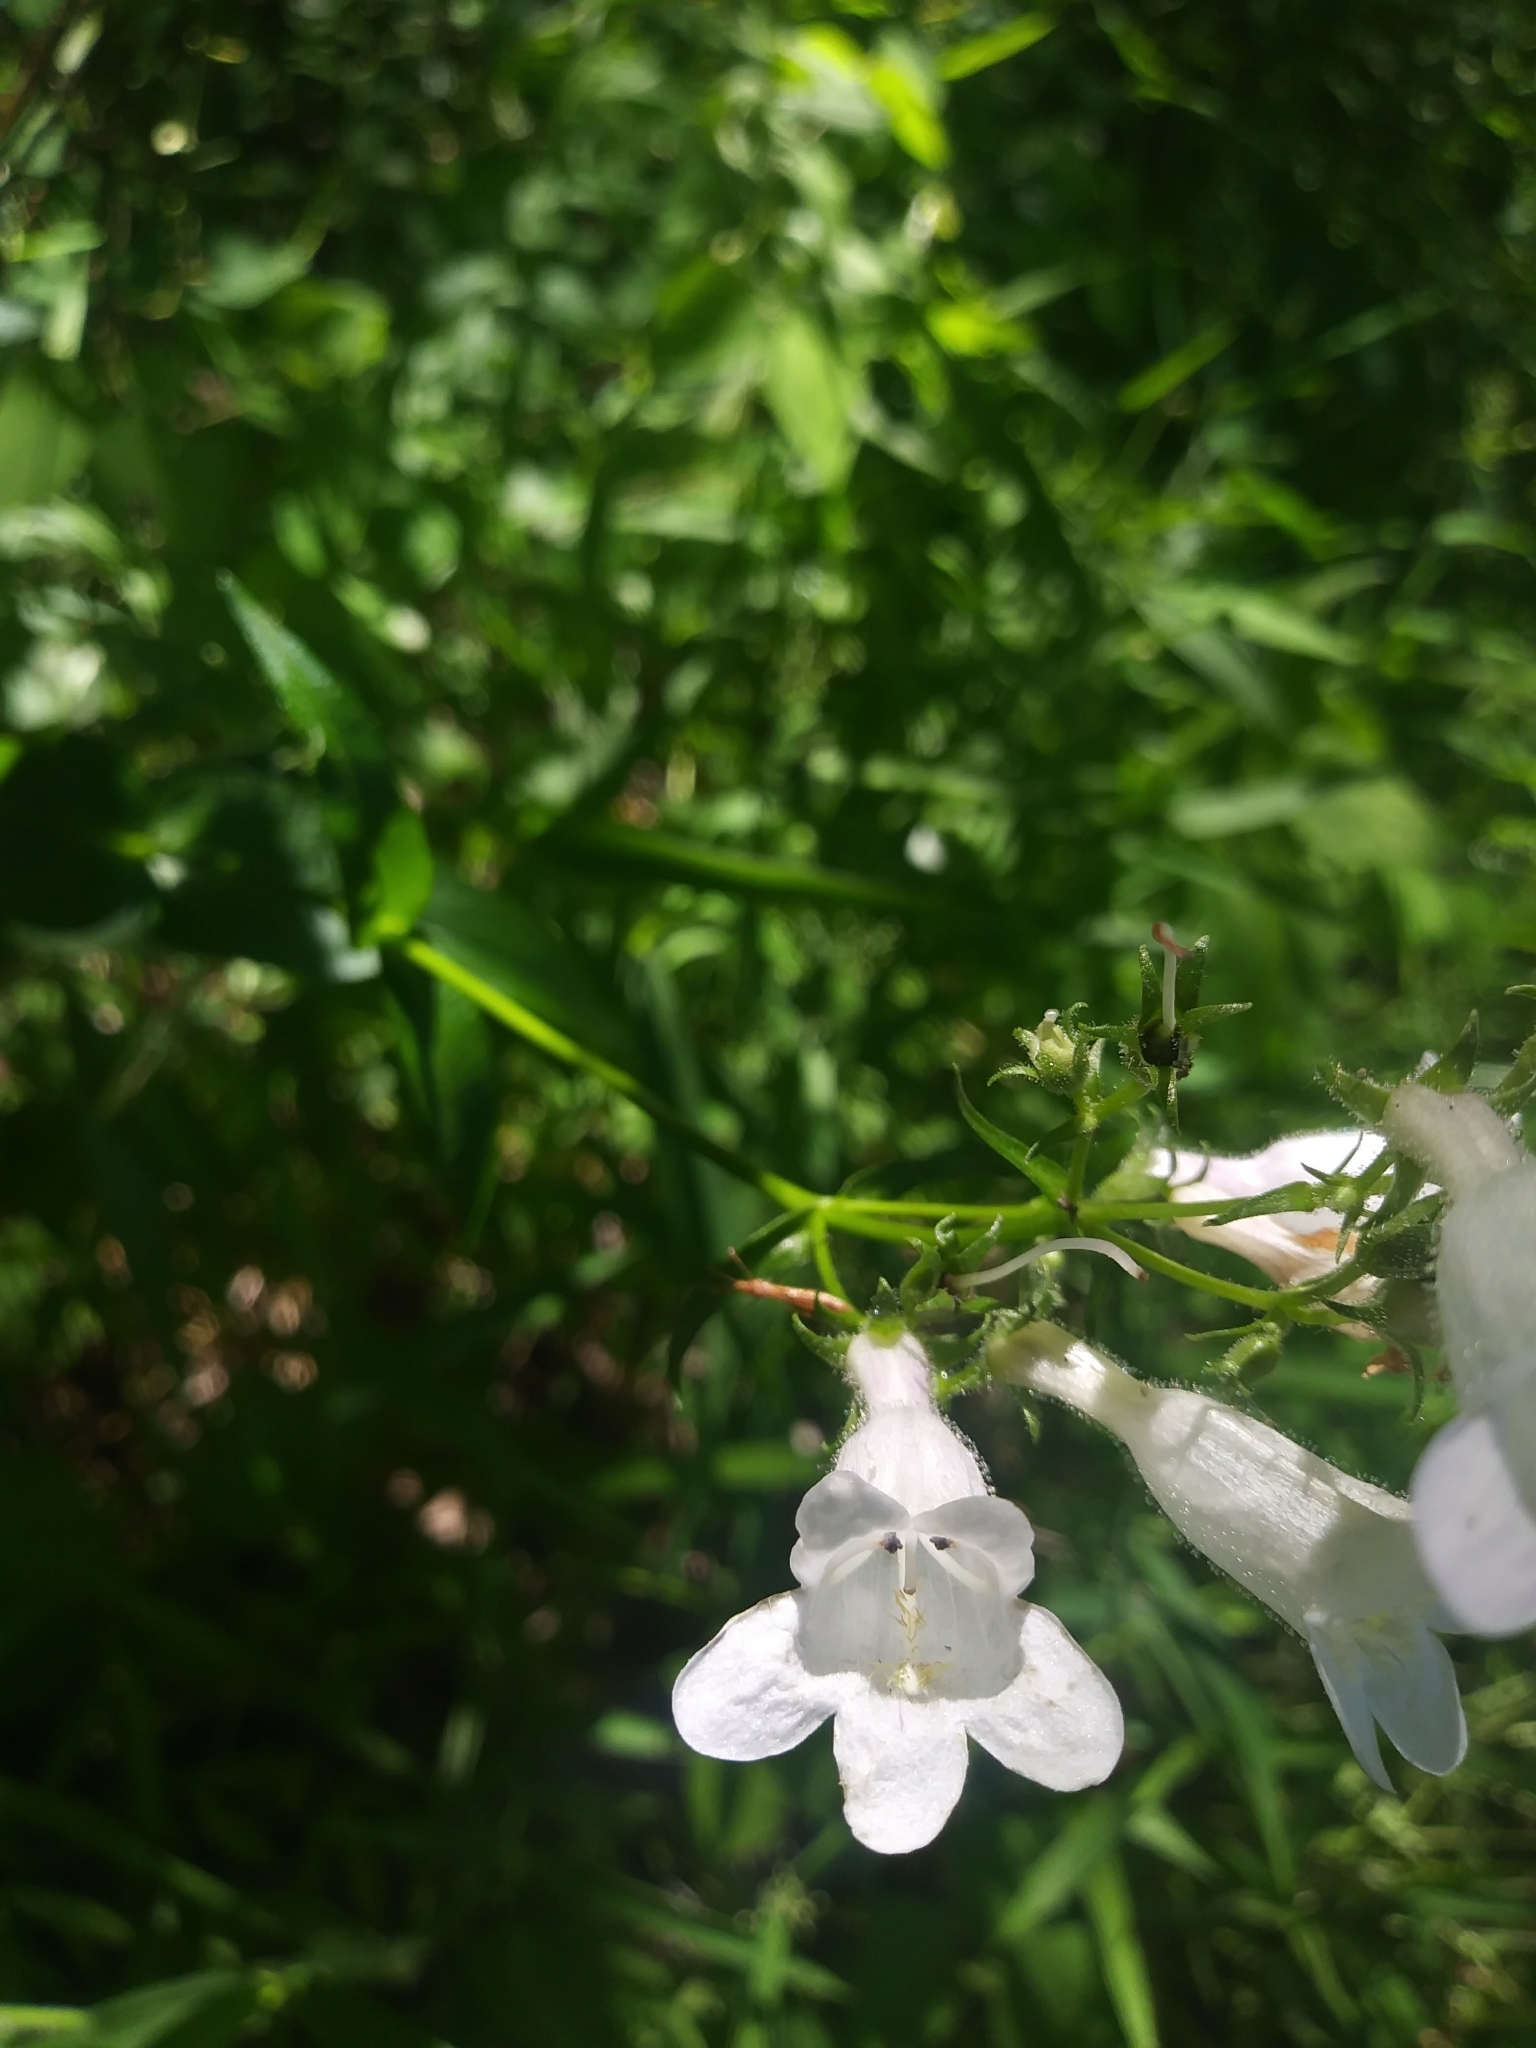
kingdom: Plantae
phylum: Tracheophyta
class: Magnoliopsida
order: Lamiales
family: Plantaginaceae
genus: Penstemon
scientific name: Penstemon digitalis
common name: Foxglove beardtongue
